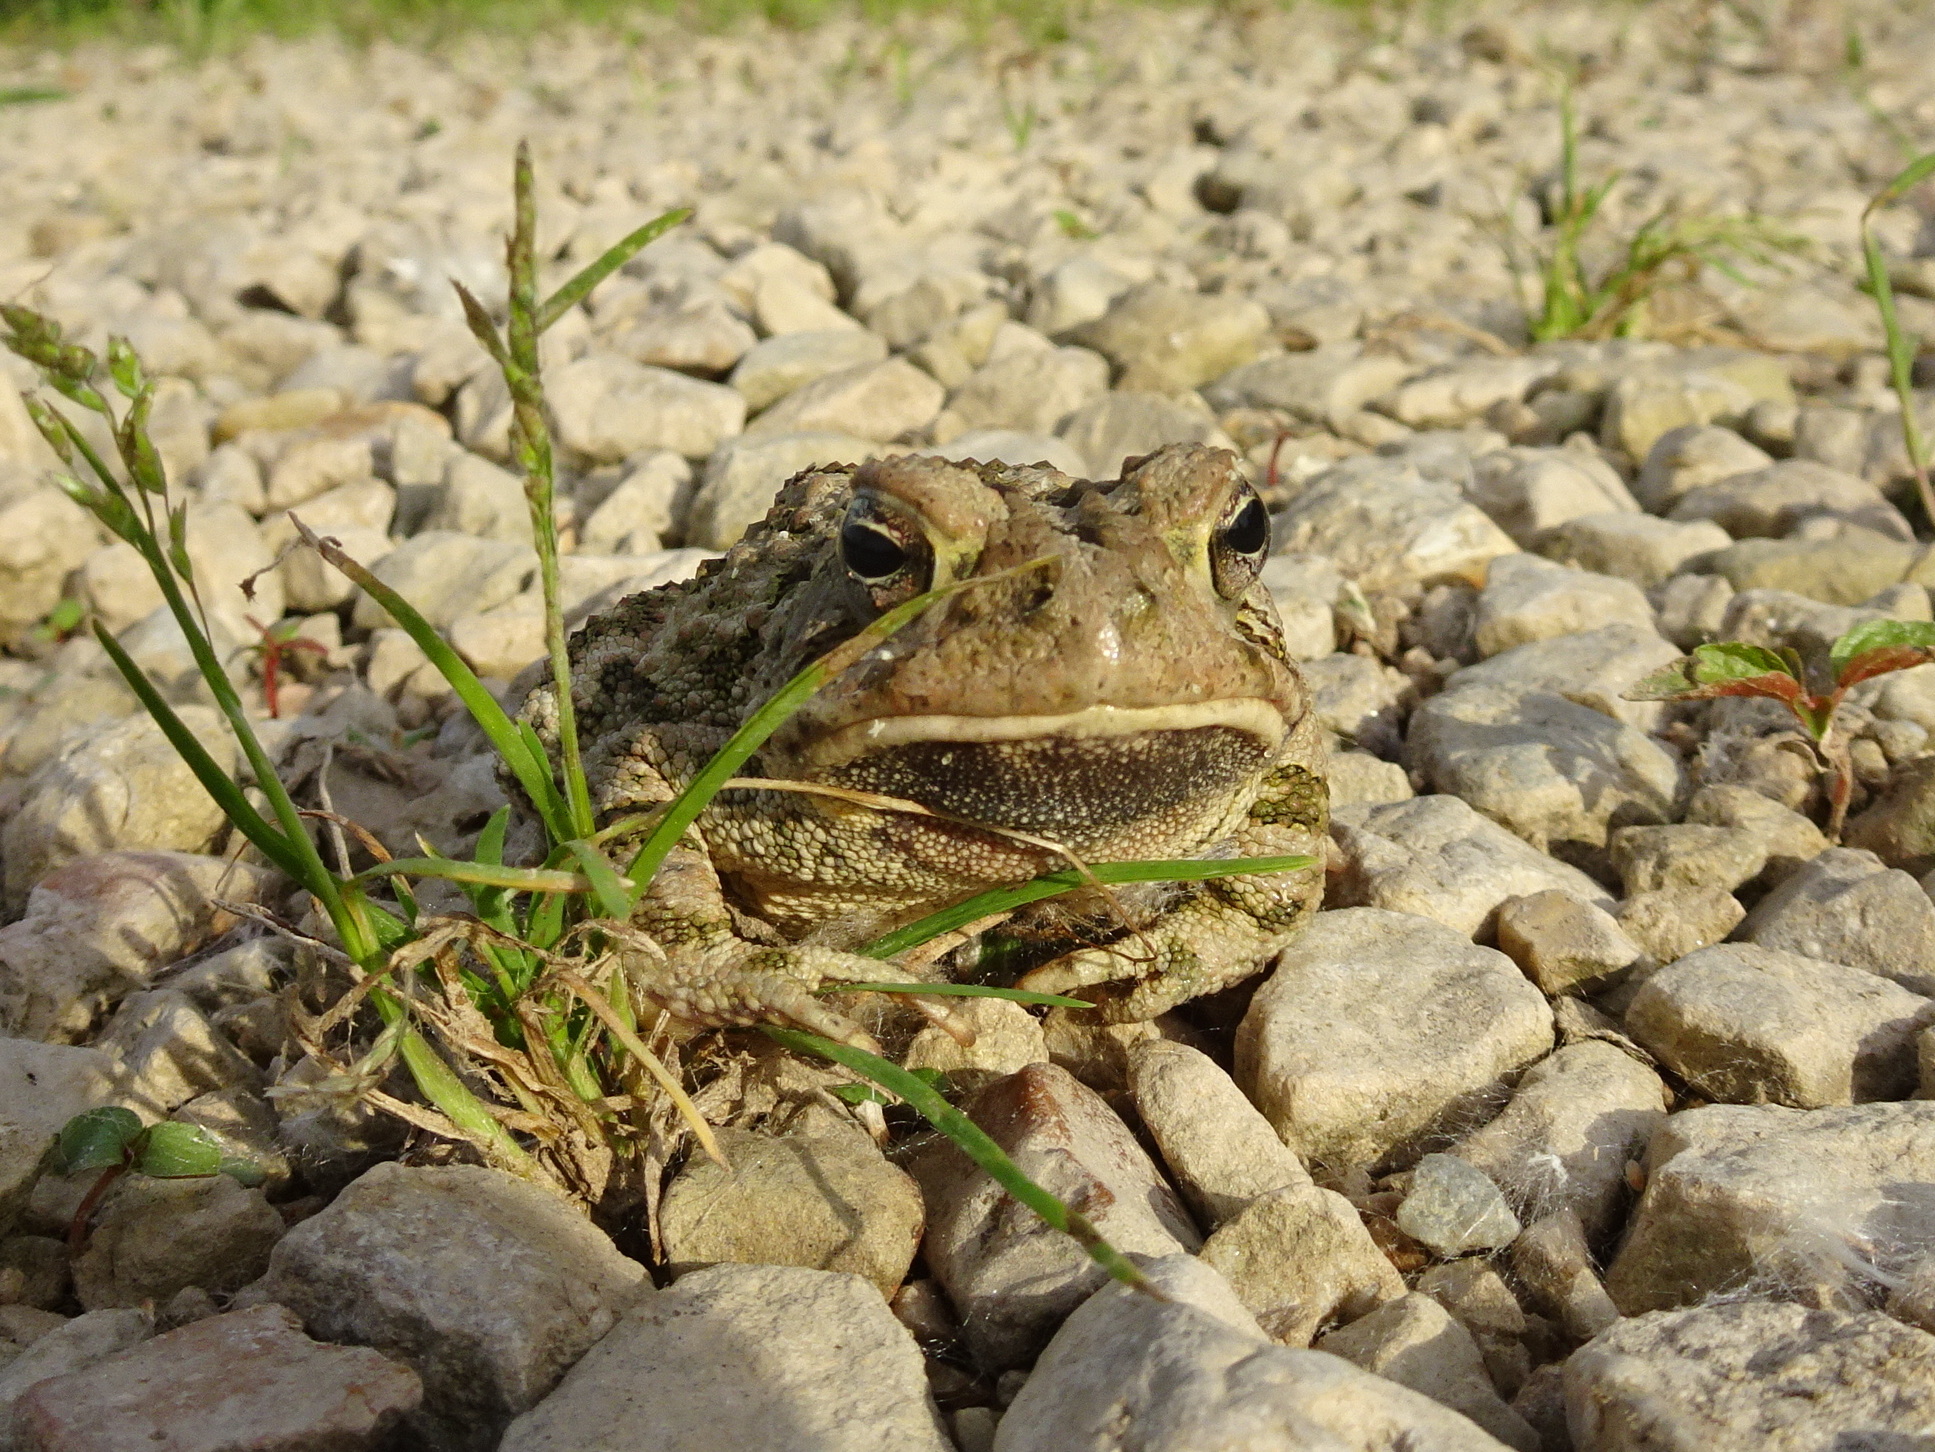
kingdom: Animalia
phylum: Chordata
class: Amphibia
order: Anura
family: Bufonidae
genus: Anaxyrus
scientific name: Anaxyrus fowleri
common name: Fowler's toad
